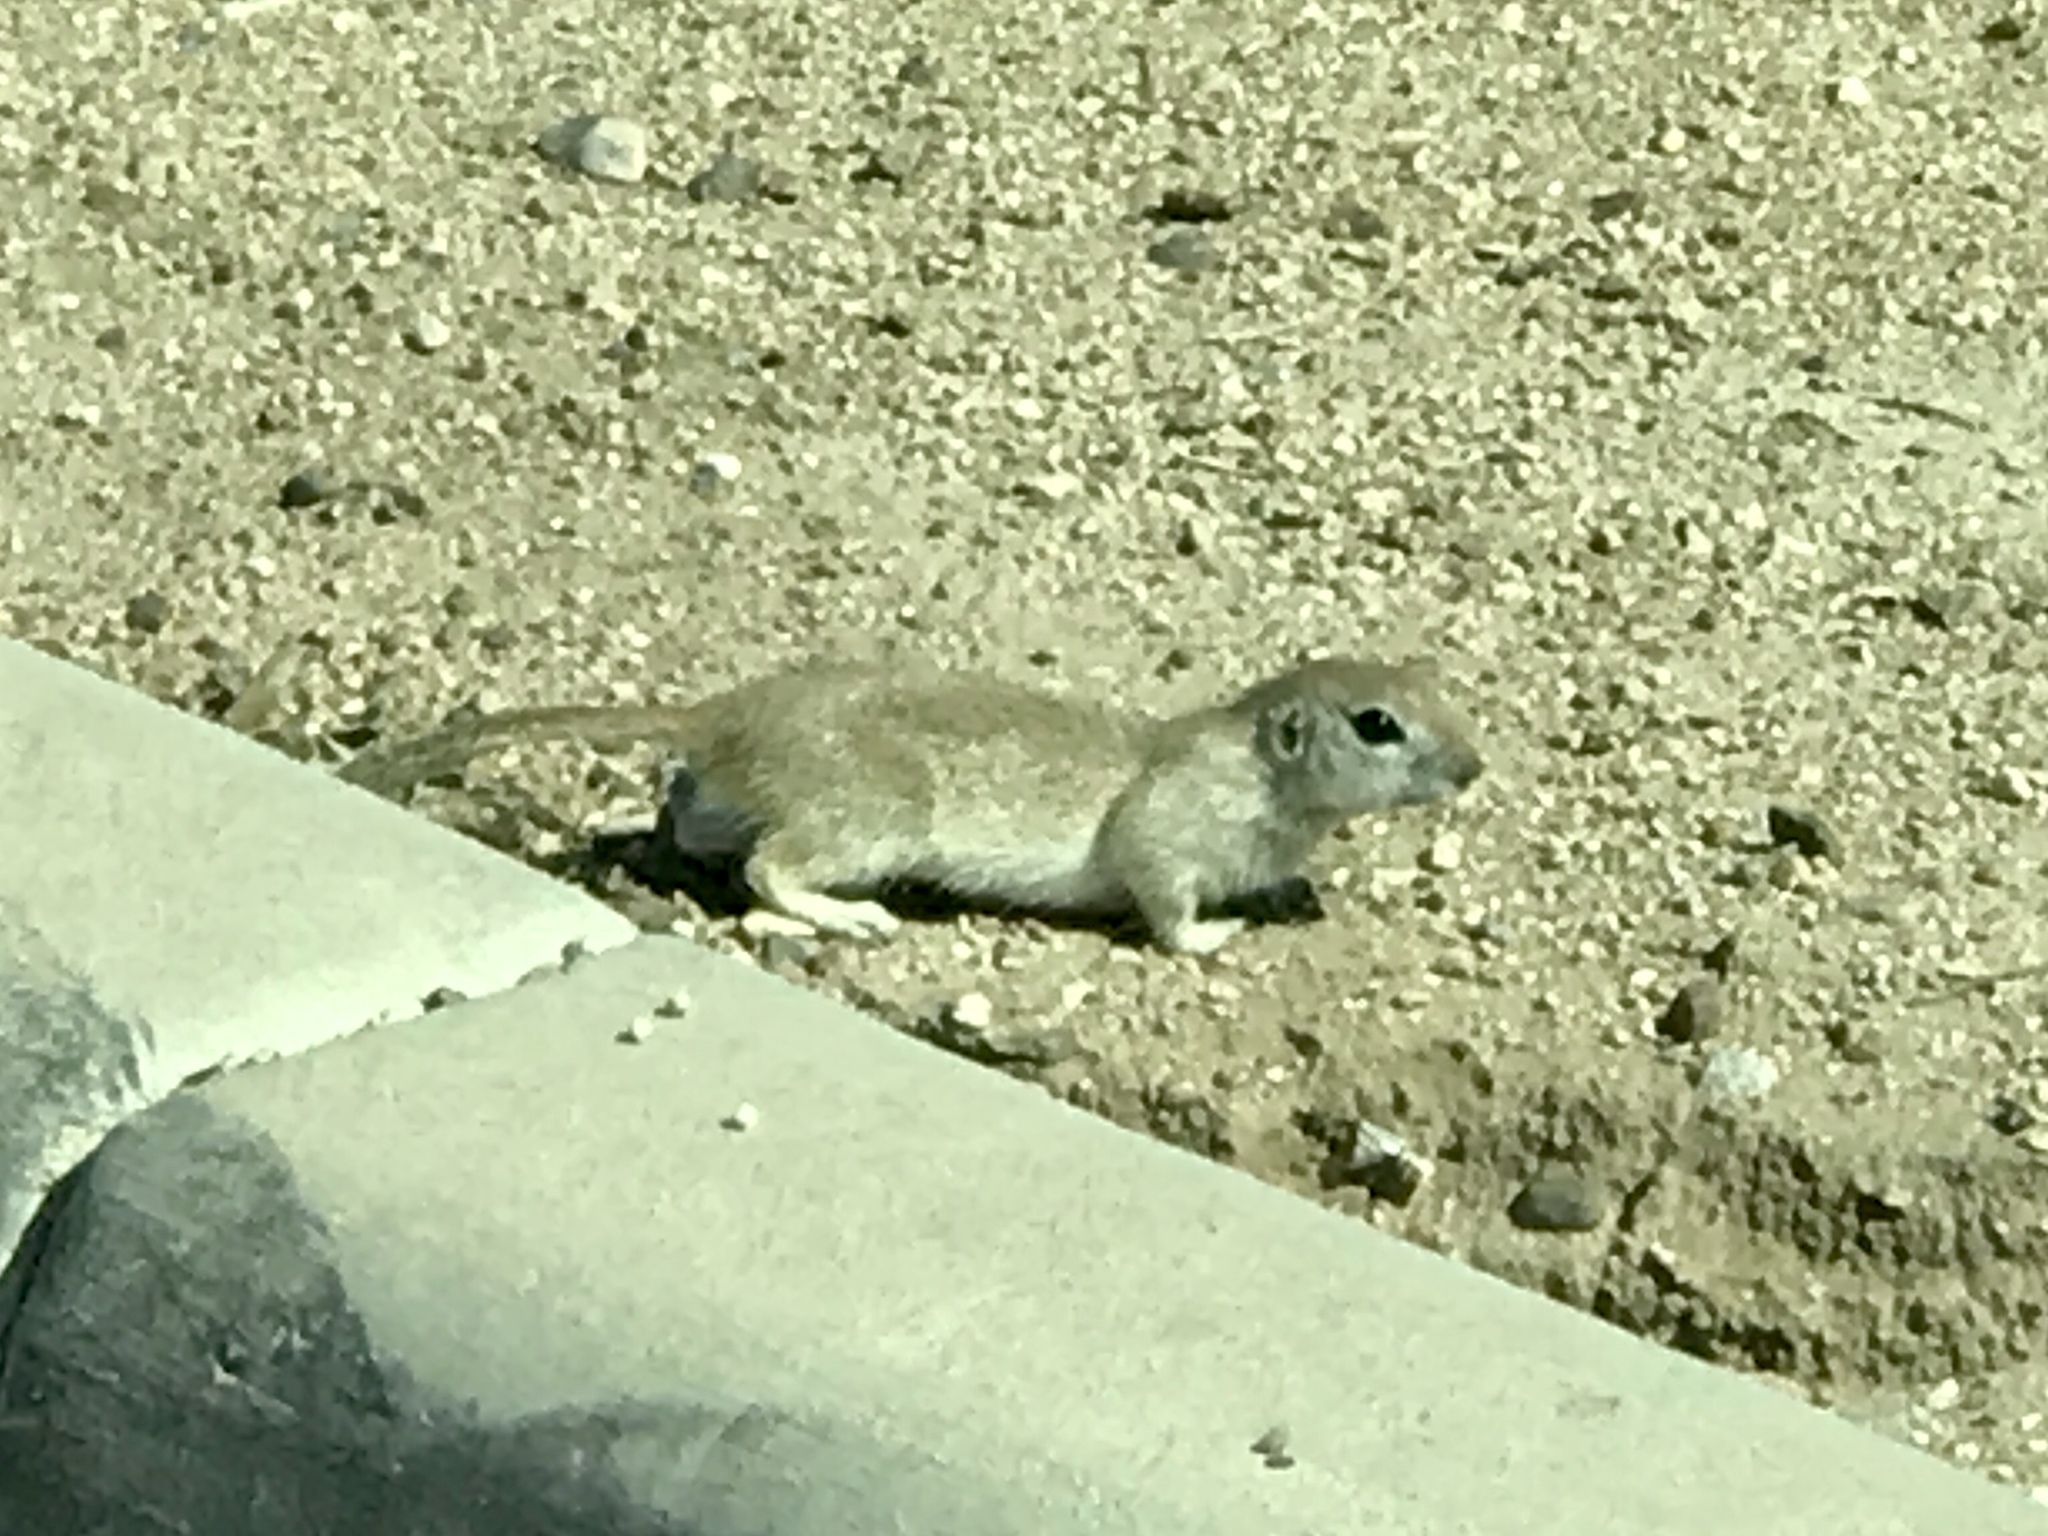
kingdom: Animalia
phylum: Chordata
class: Mammalia
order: Rodentia
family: Sciuridae
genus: Xerospermophilus
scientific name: Xerospermophilus tereticaudus
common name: Round-tailed ground squirrel
